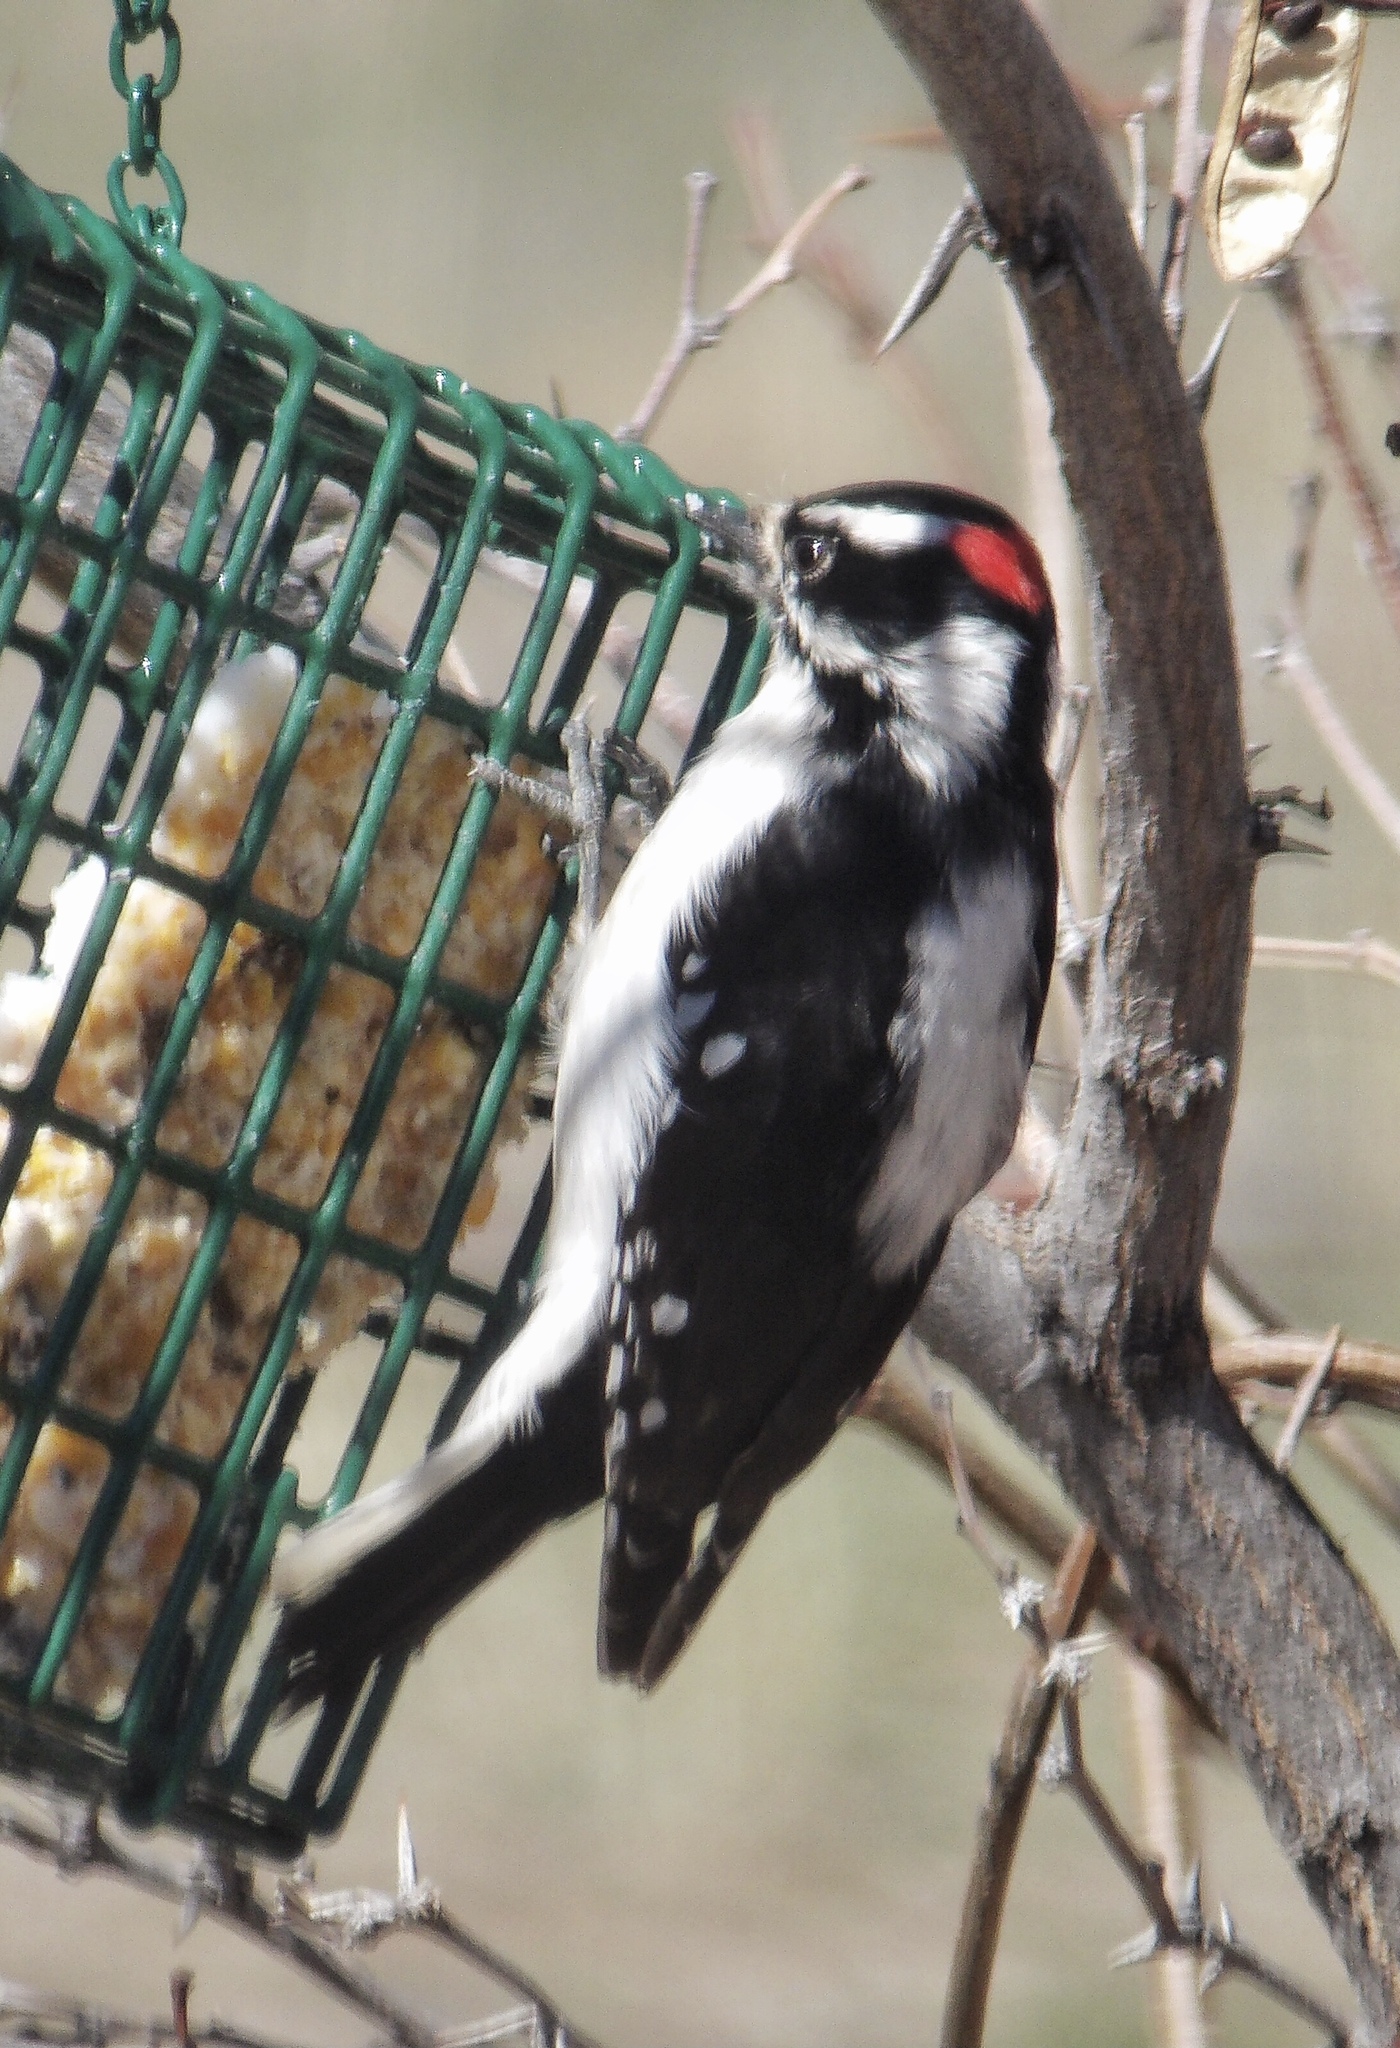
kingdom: Animalia
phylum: Chordata
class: Aves
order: Piciformes
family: Picidae
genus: Dryobates
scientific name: Dryobates pubescens
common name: Downy woodpecker
